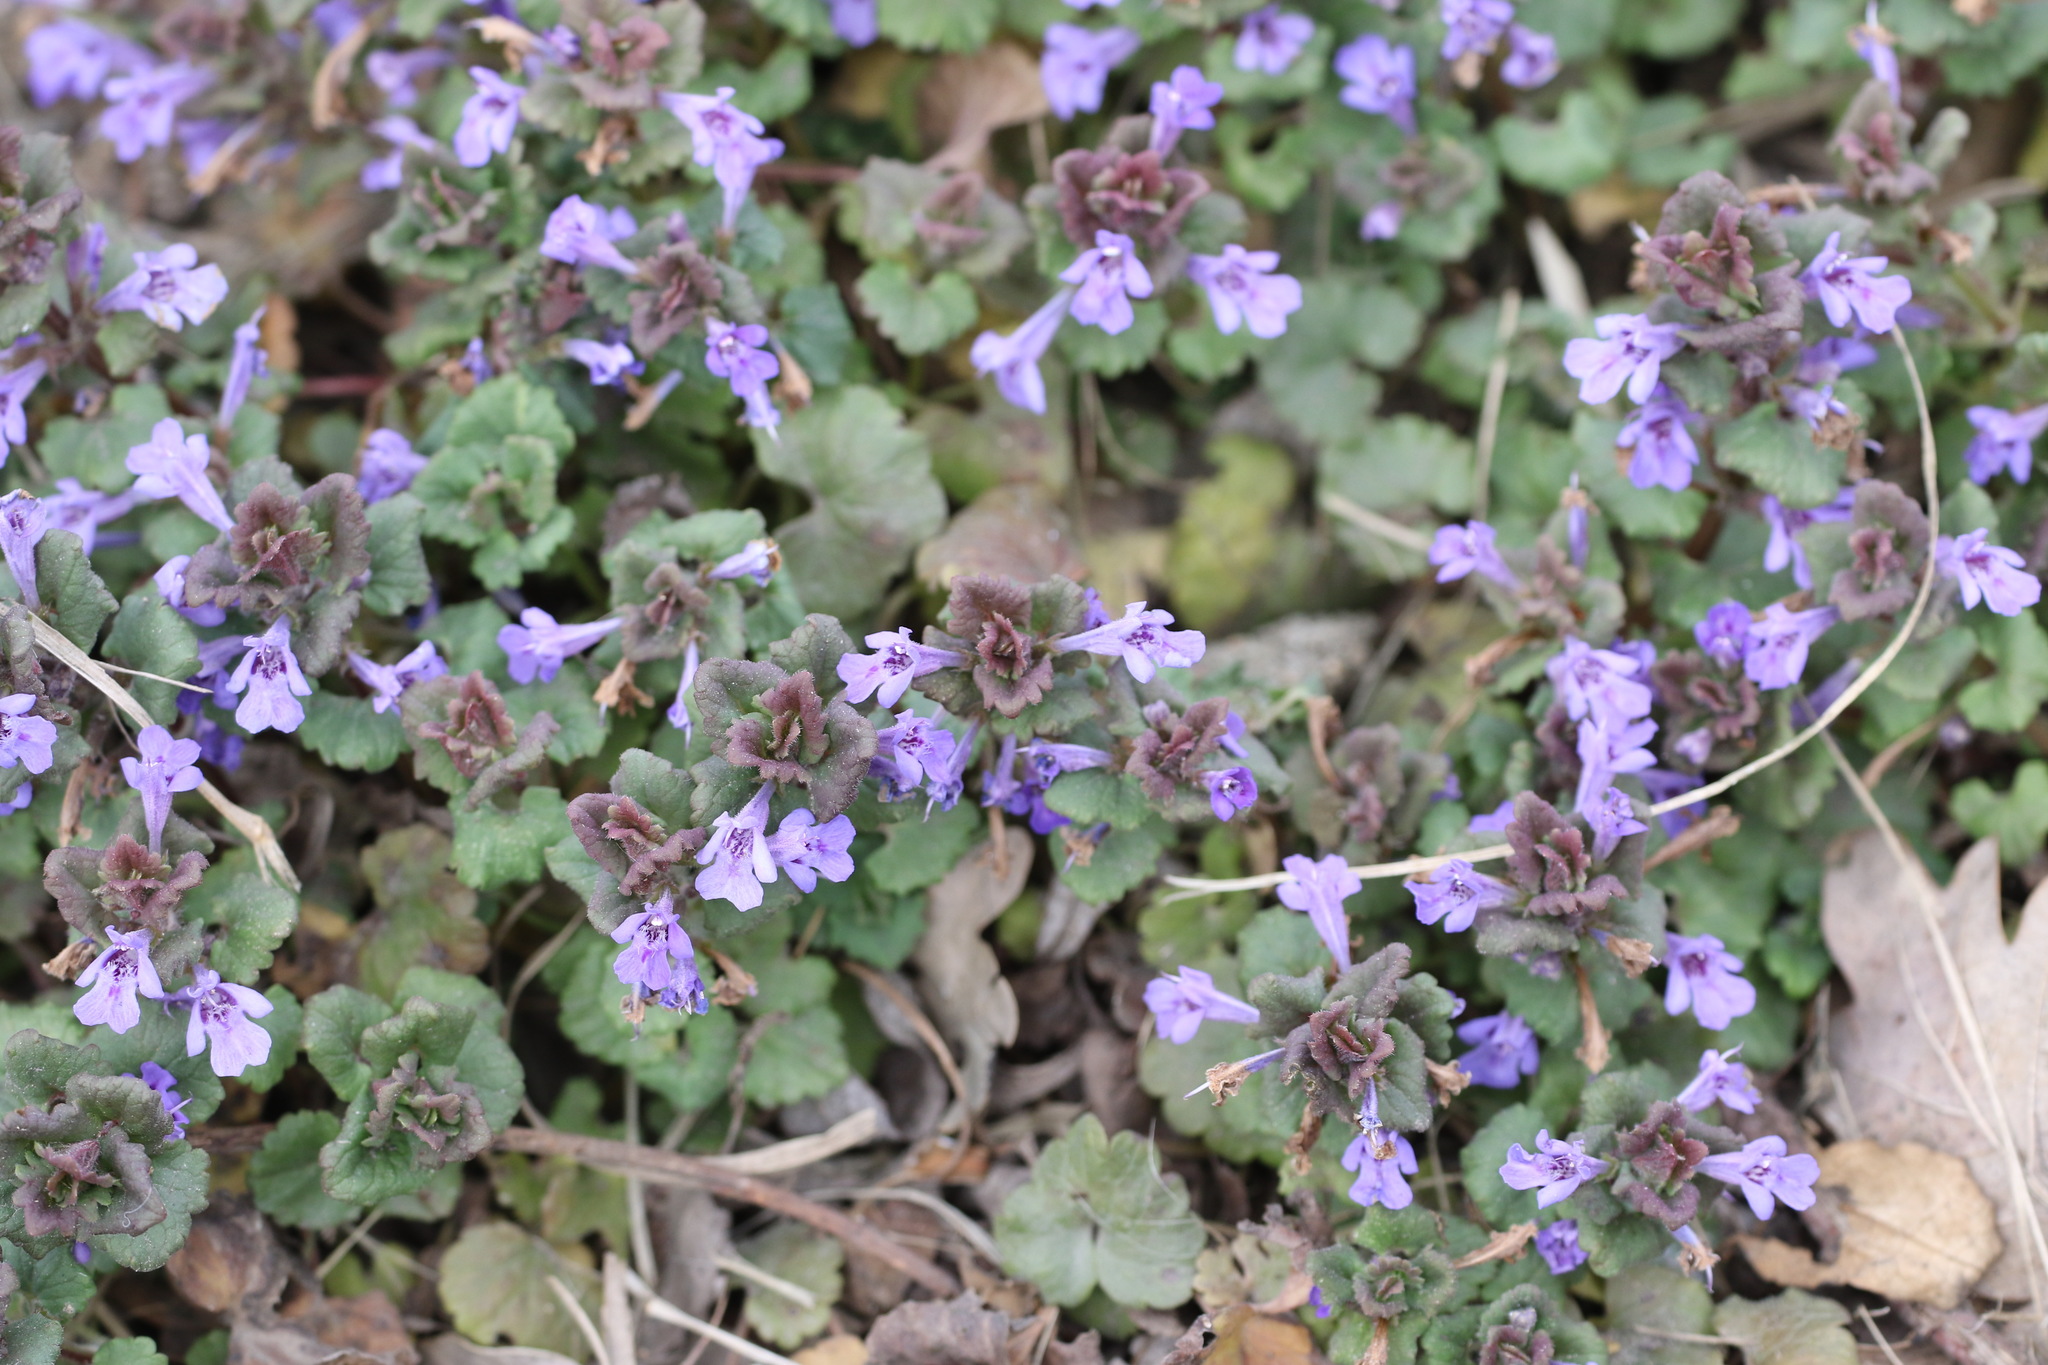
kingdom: Plantae
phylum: Tracheophyta
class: Magnoliopsida
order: Lamiales
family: Lamiaceae
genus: Glechoma
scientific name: Glechoma hederacea
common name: Ground ivy
